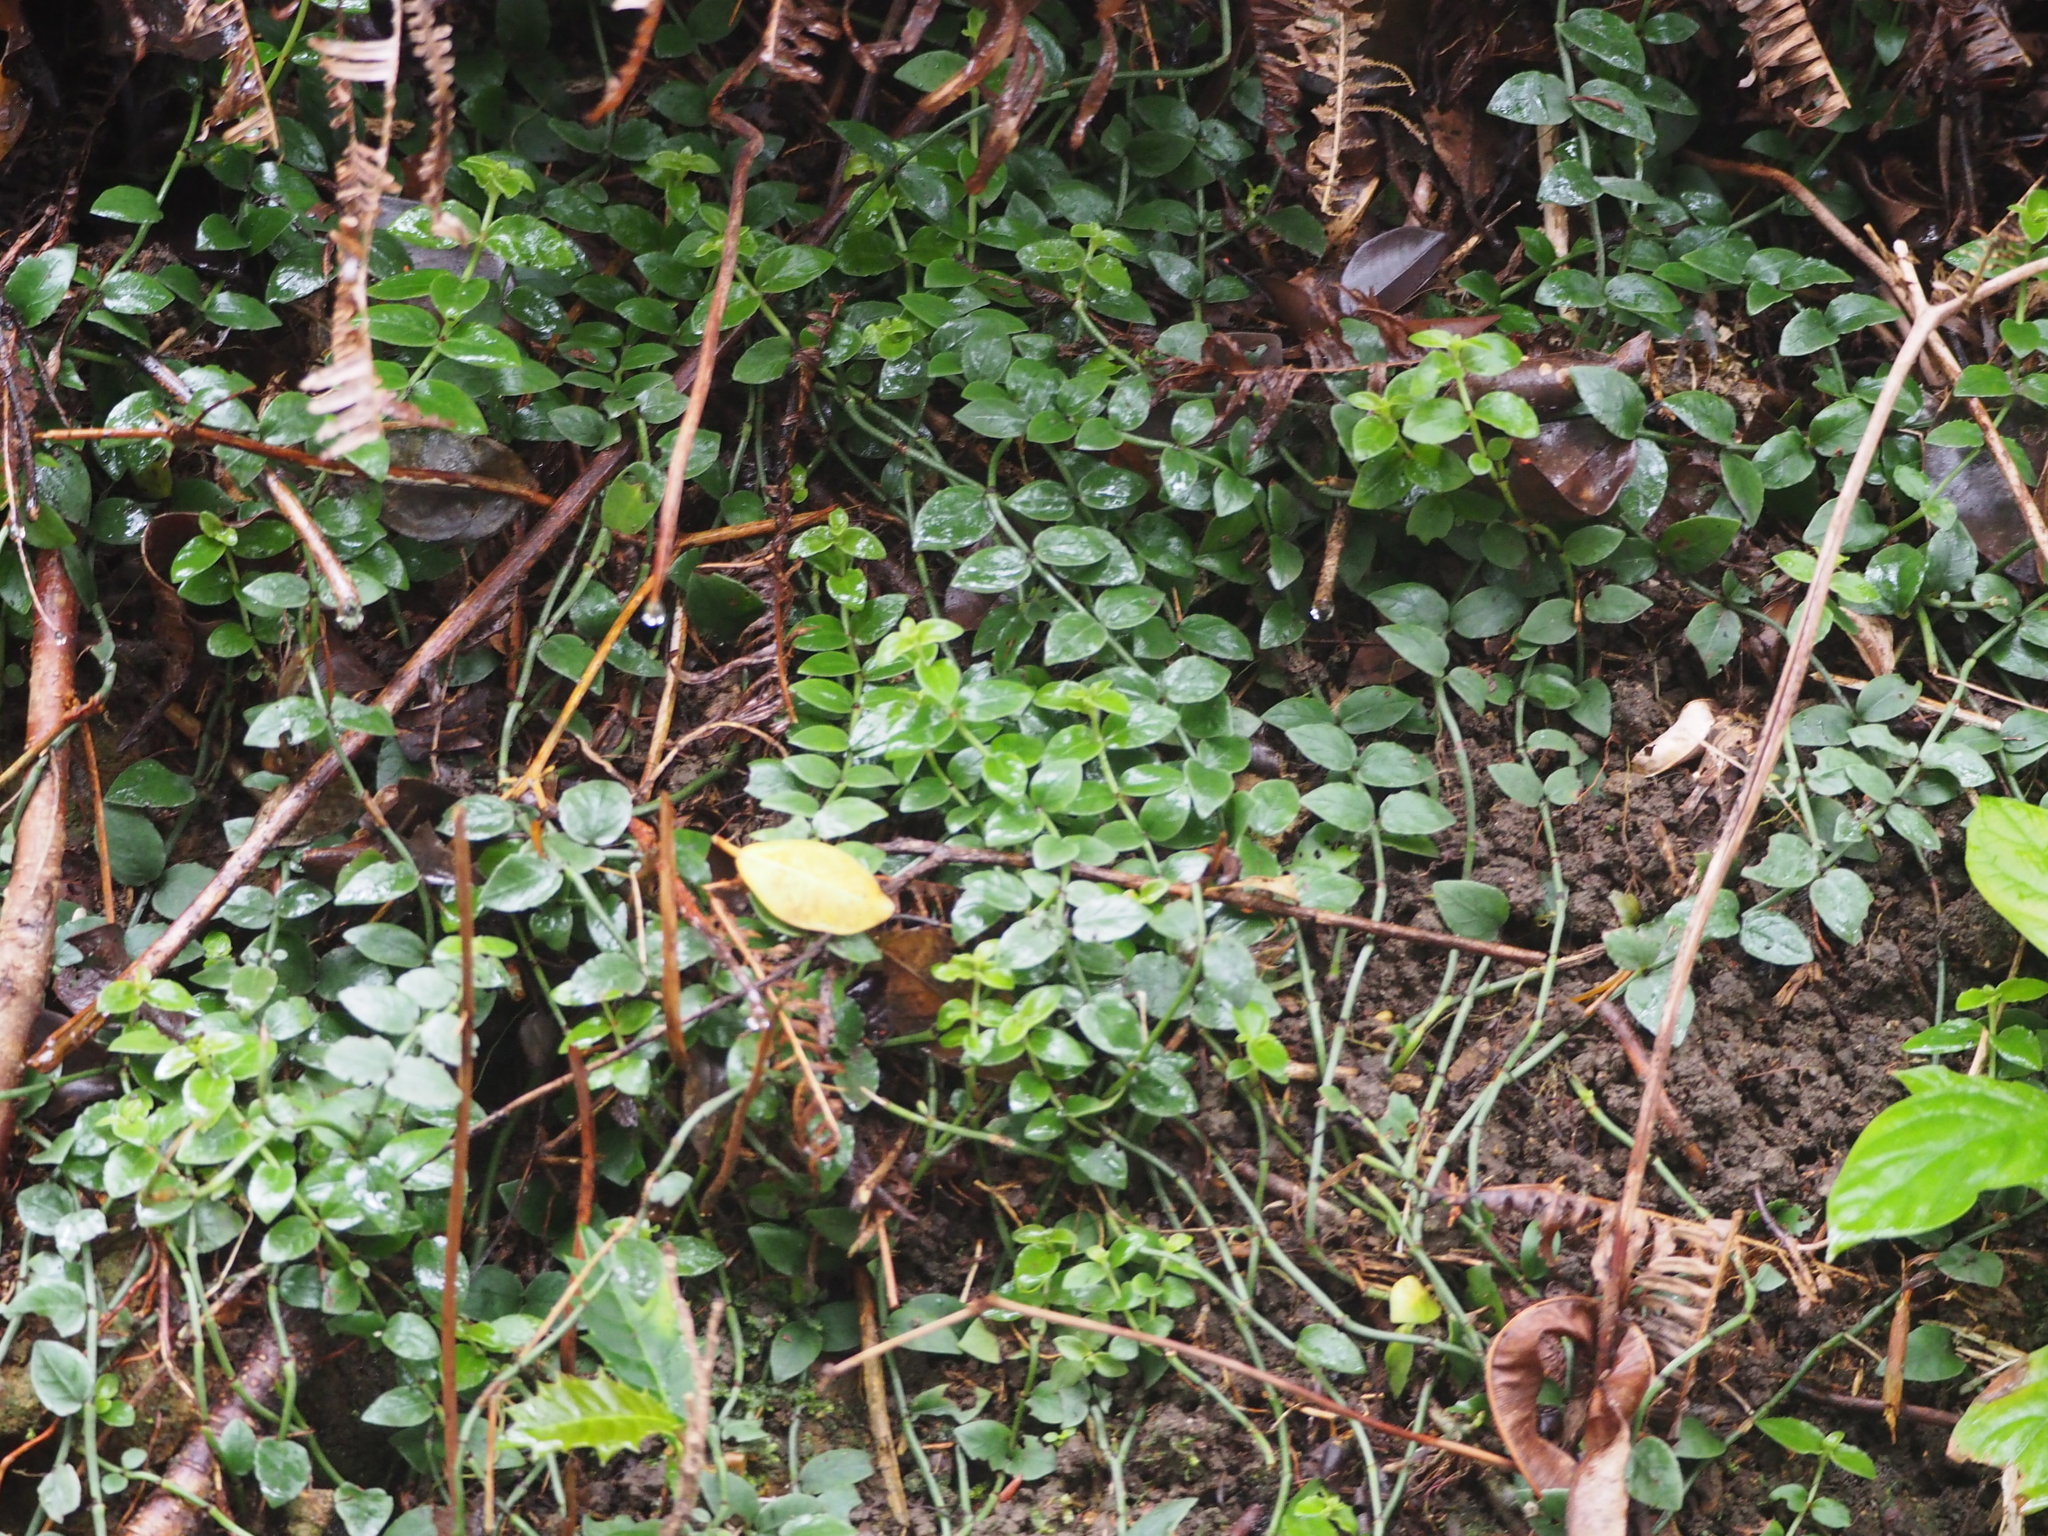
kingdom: Plantae
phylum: Tracheophyta
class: Magnoliopsida
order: Gentianales
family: Rubiaceae
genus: Psychotria
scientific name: Psychotria serpens
